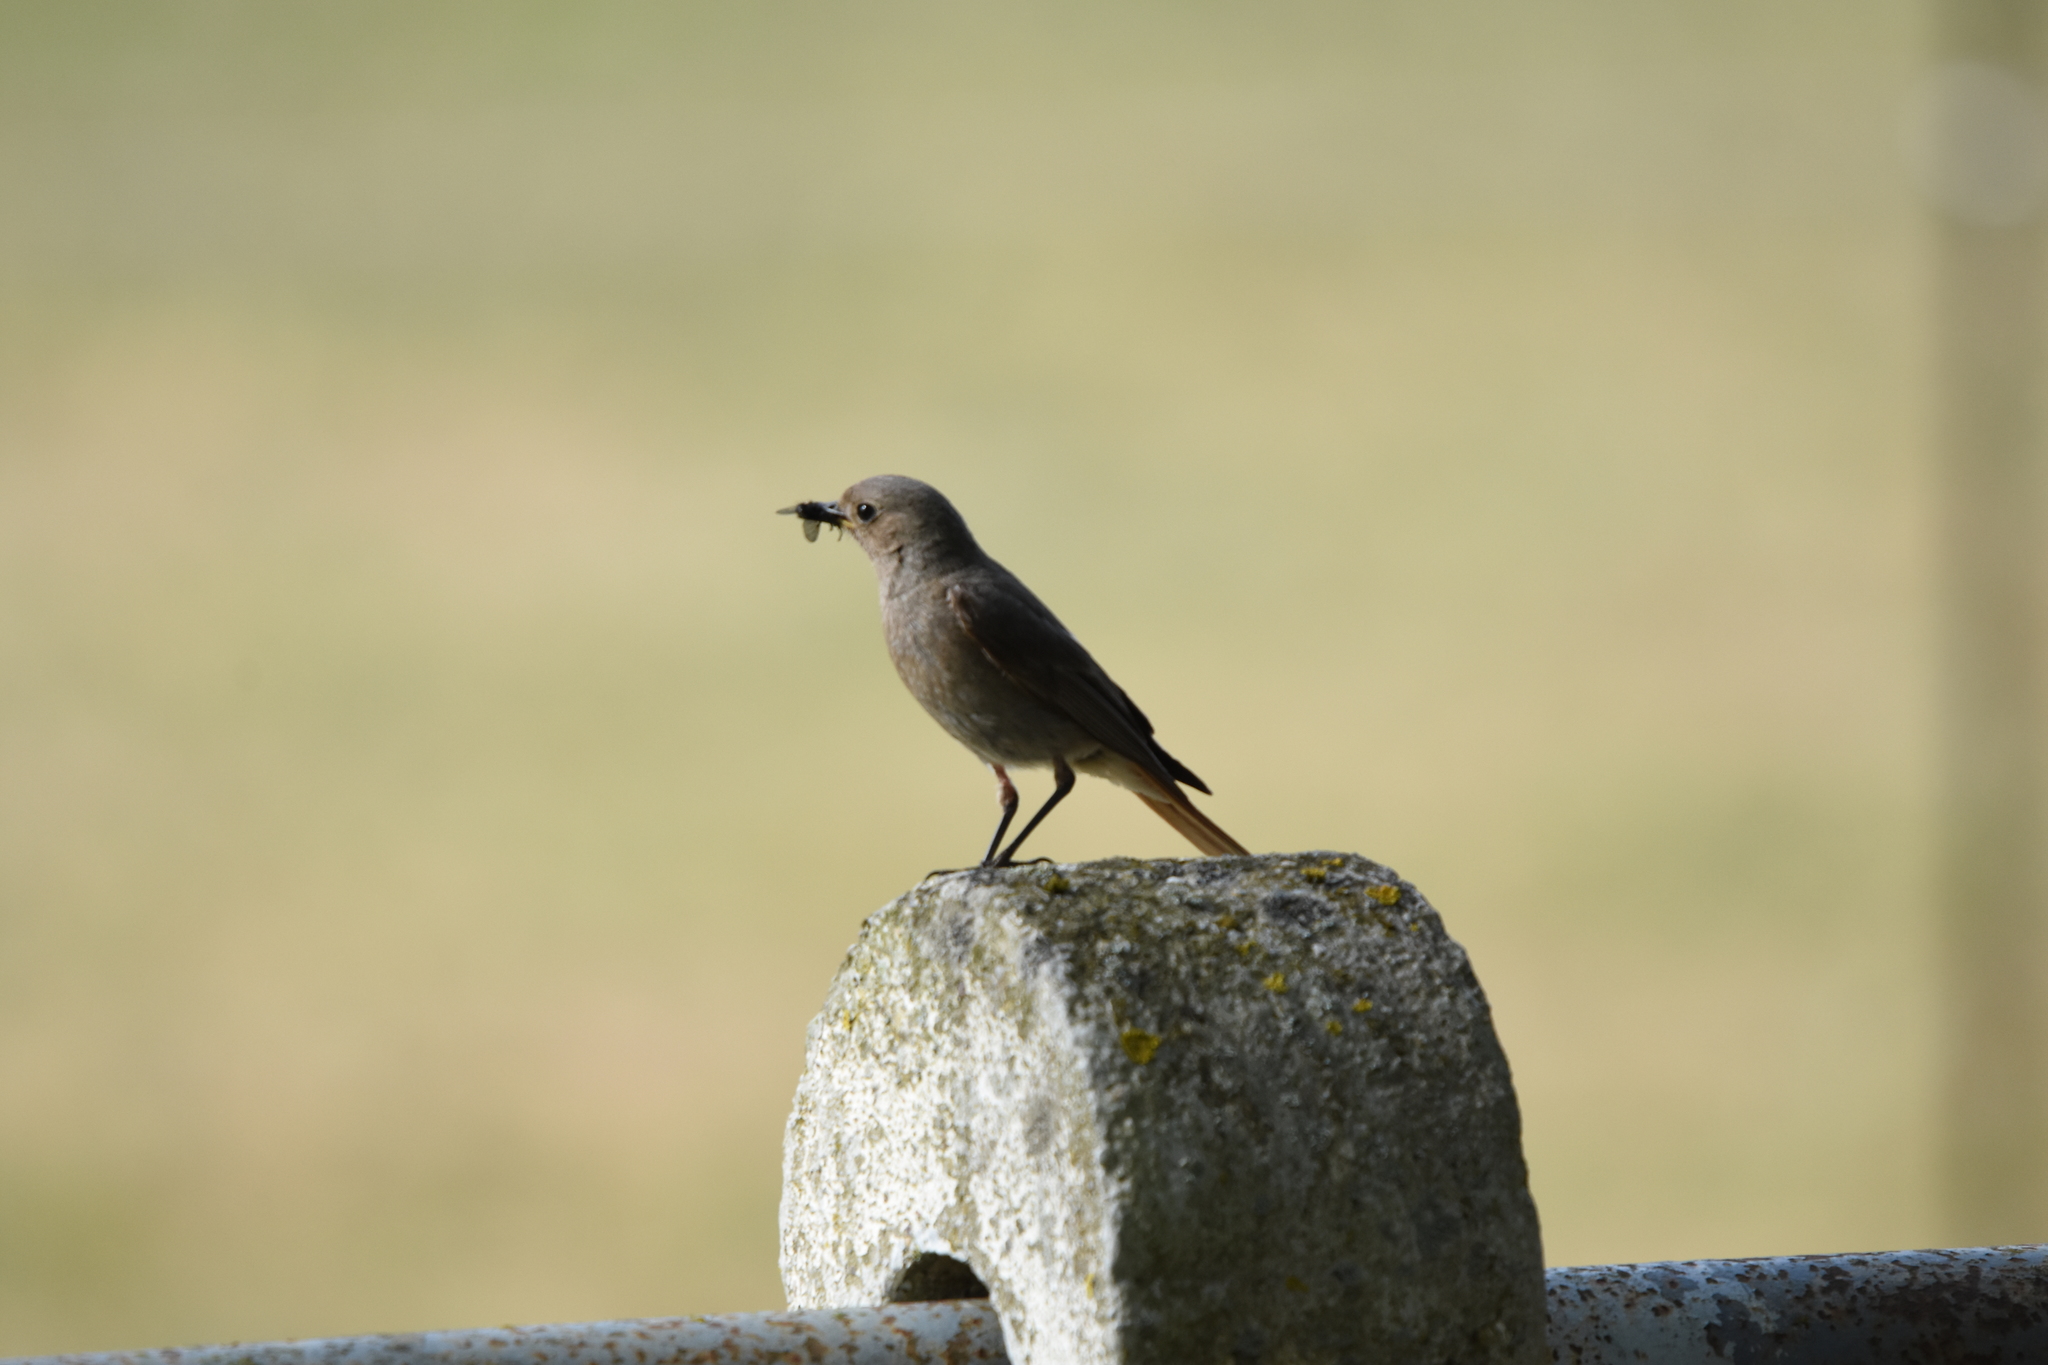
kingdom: Animalia
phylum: Chordata
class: Aves
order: Passeriformes
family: Muscicapidae
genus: Phoenicurus
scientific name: Phoenicurus ochruros
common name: Black redstart
